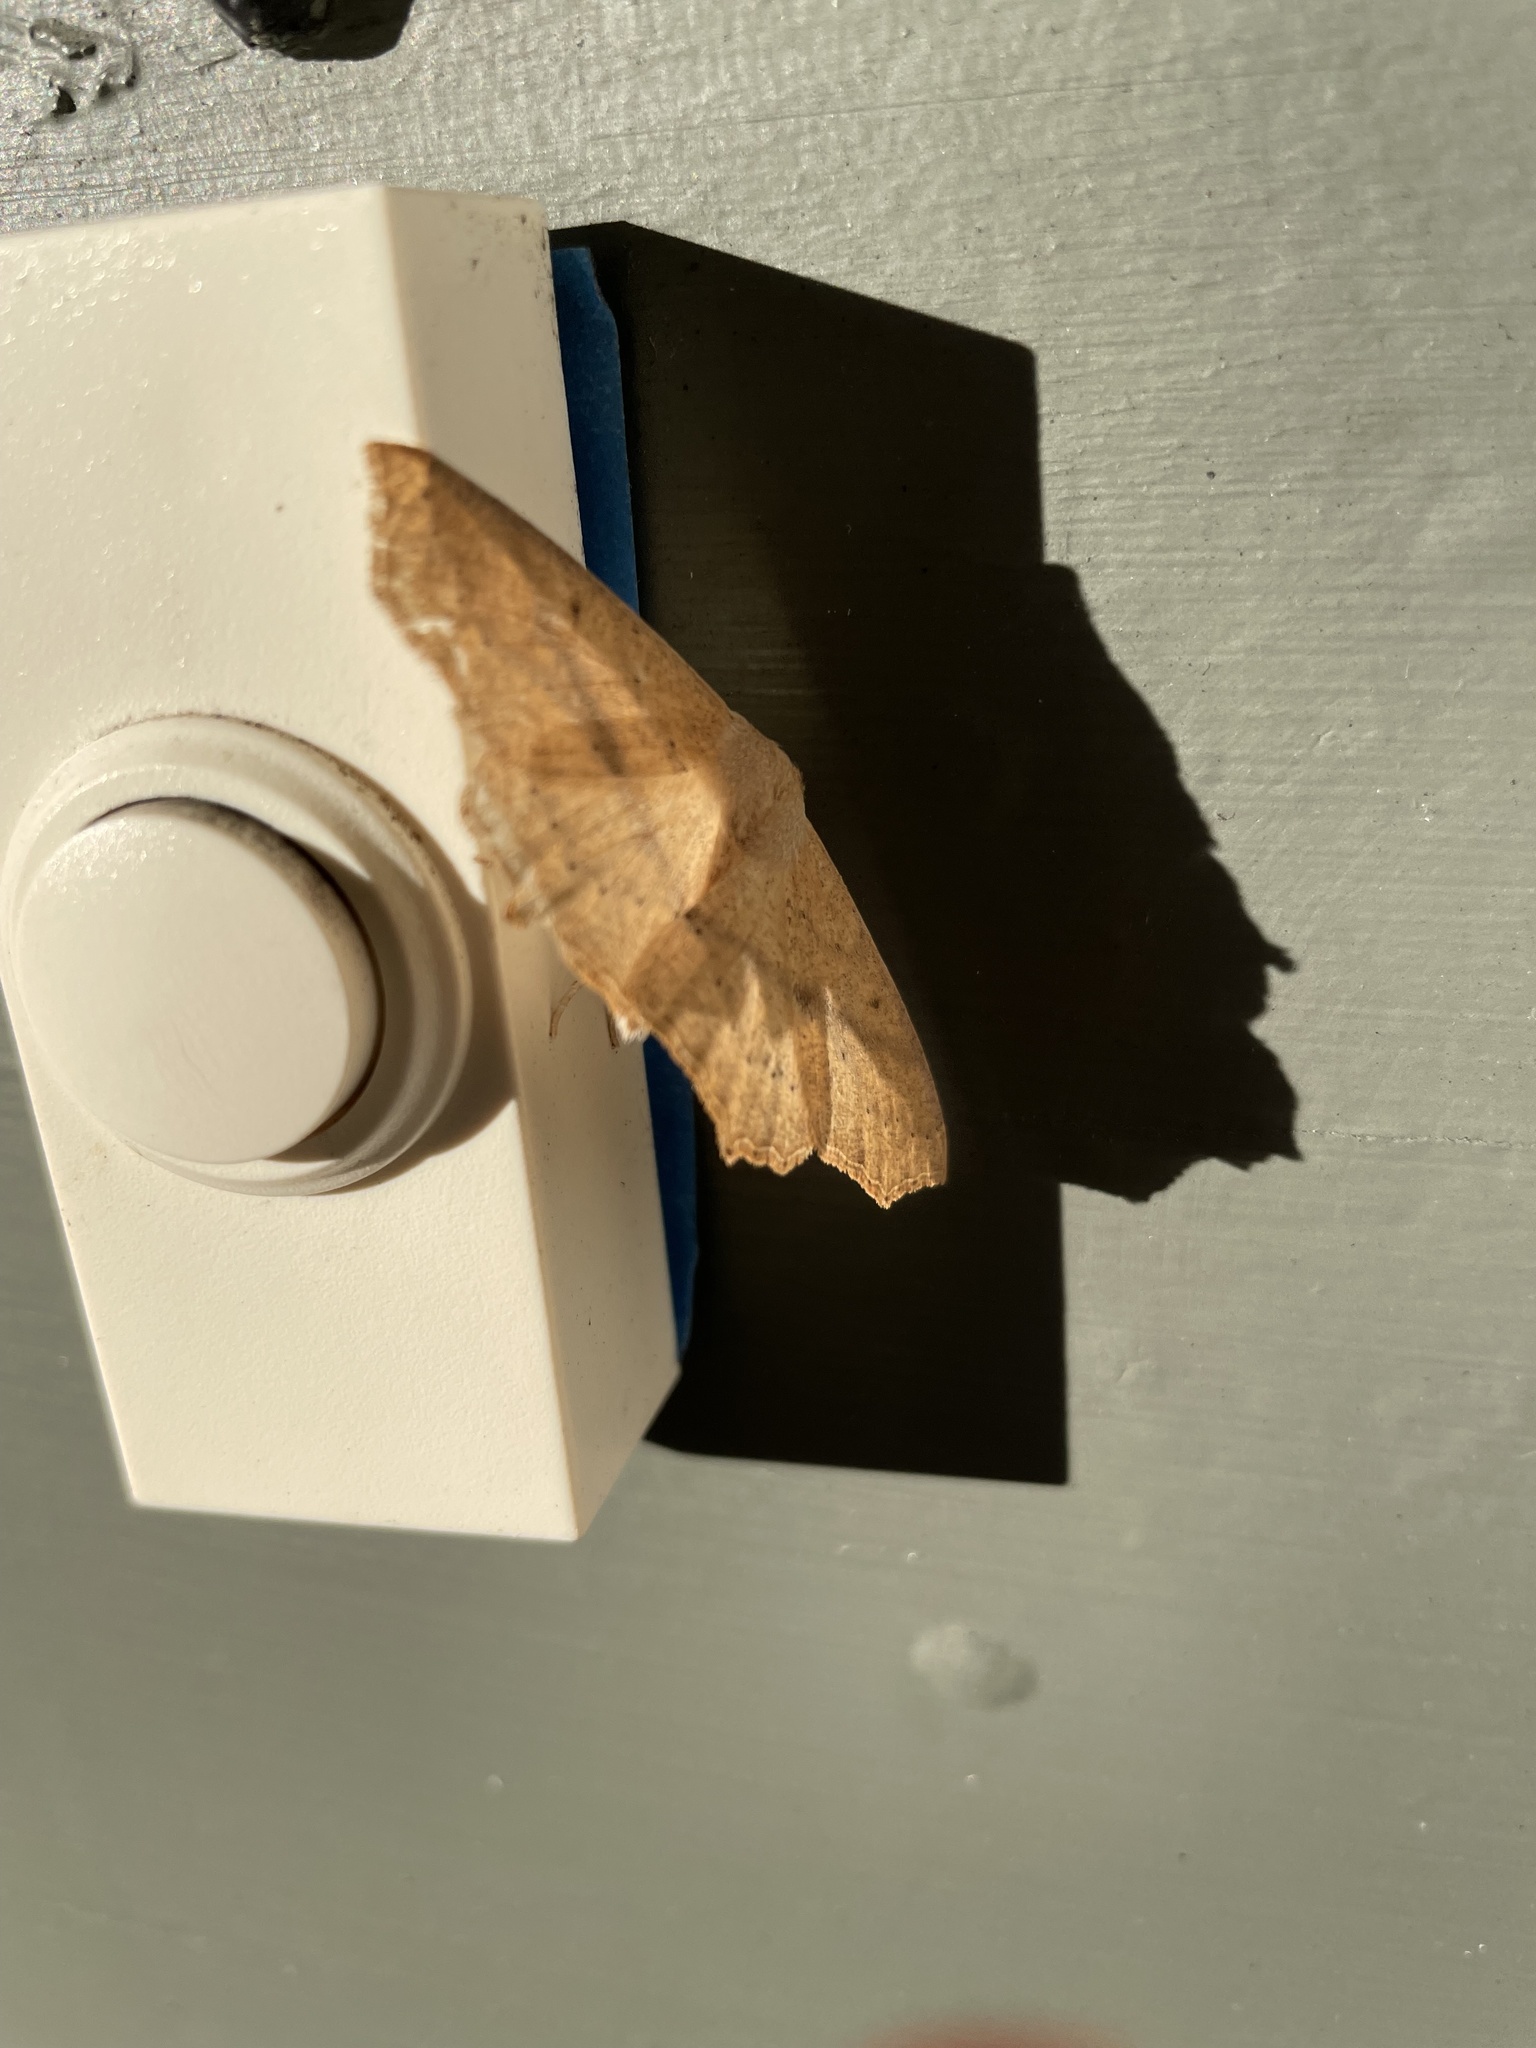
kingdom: Animalia
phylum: Arthropoda
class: Insecta
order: Lepidoptera
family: Geometridae
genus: Sabulodes
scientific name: Sabulodes aegrotata
